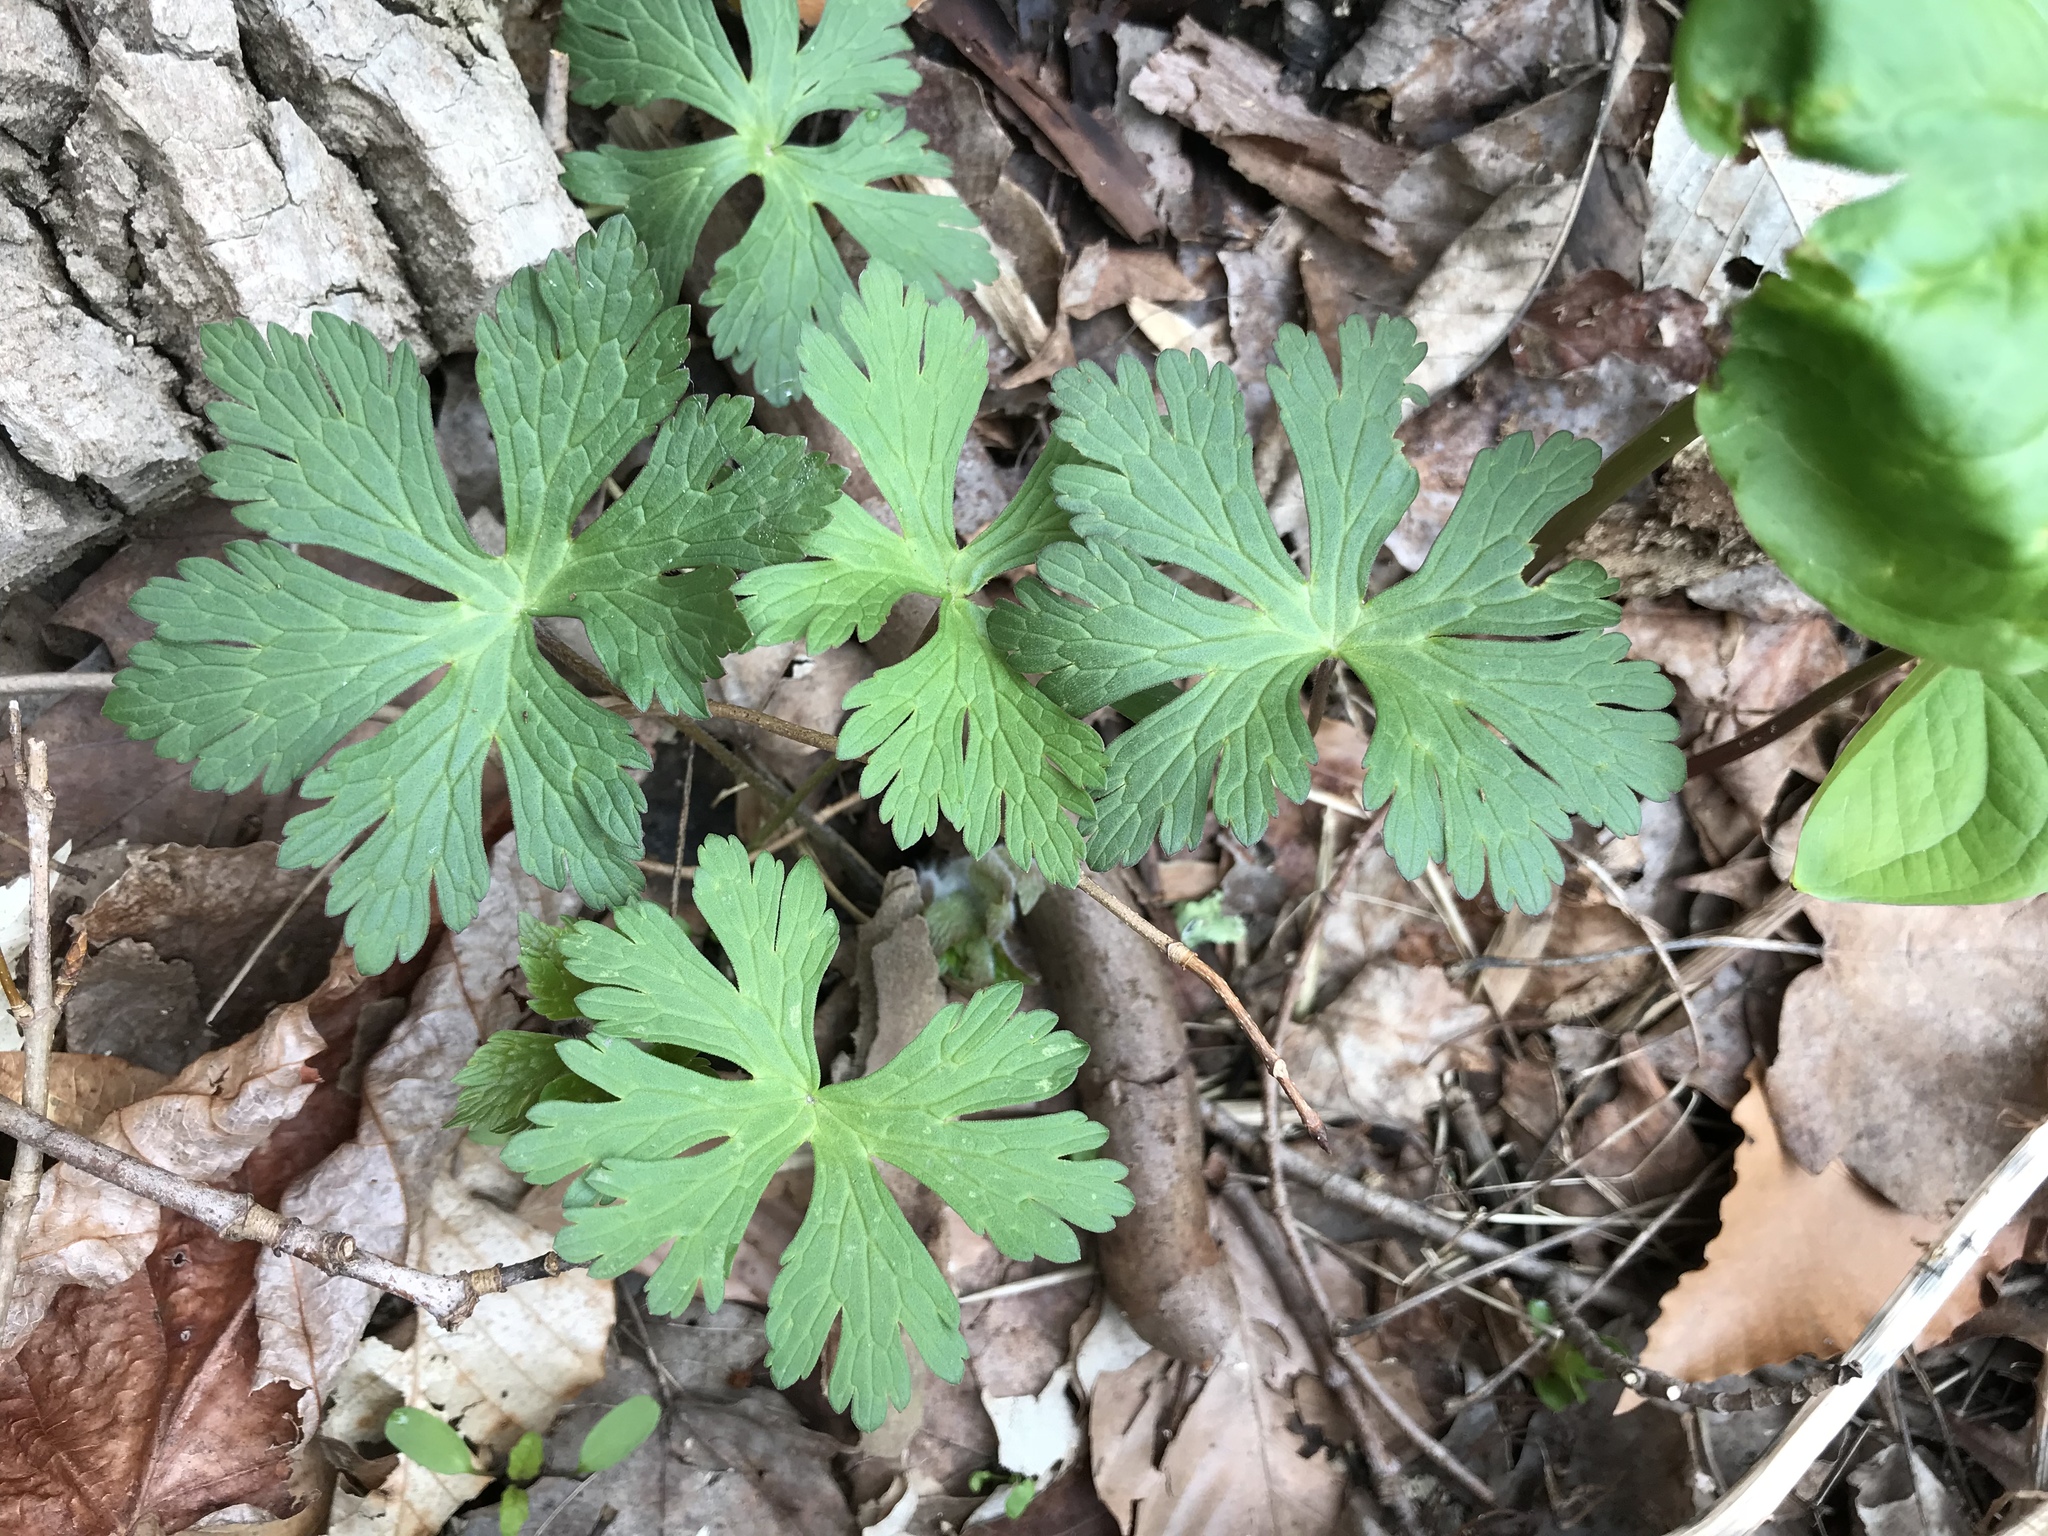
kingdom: Plantae
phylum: Tracheophyta
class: Magnoliopsida
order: Geraniales
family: Geraniaceae
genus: Geranium
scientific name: Geranium maculatum
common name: Spotted geranium
